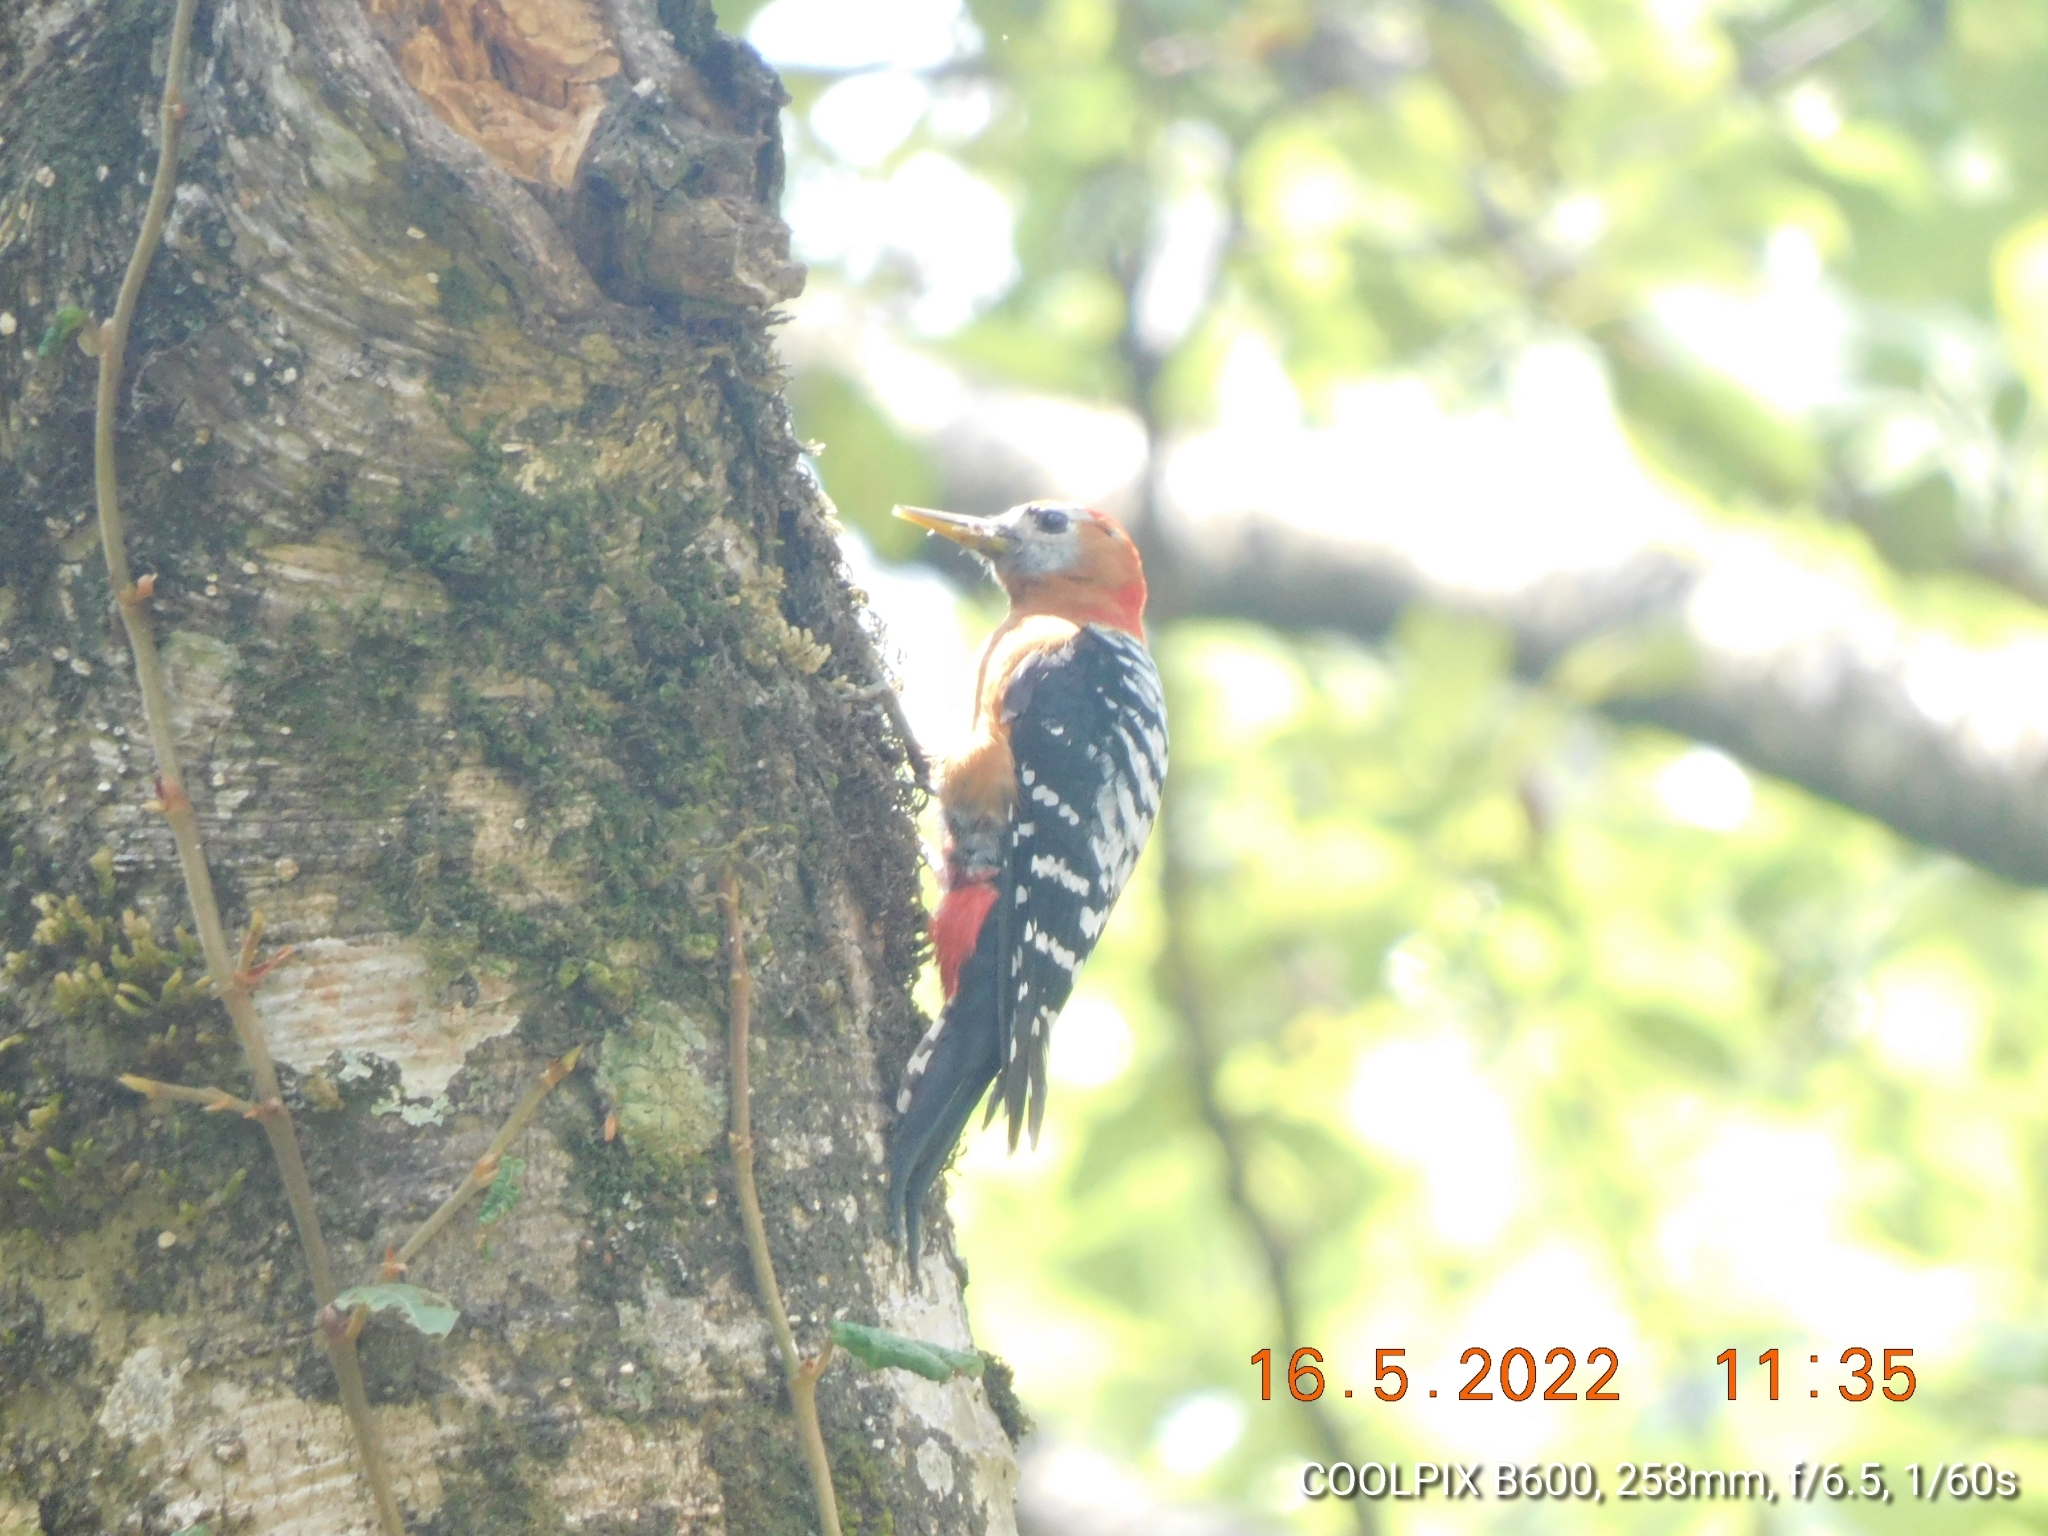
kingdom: Animalia
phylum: Chordata
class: Aves
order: Piciformes
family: Picidae
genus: Dendrocopos
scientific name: Dendrocopos hyperythrus
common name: Rufous-bellied woodpecker
